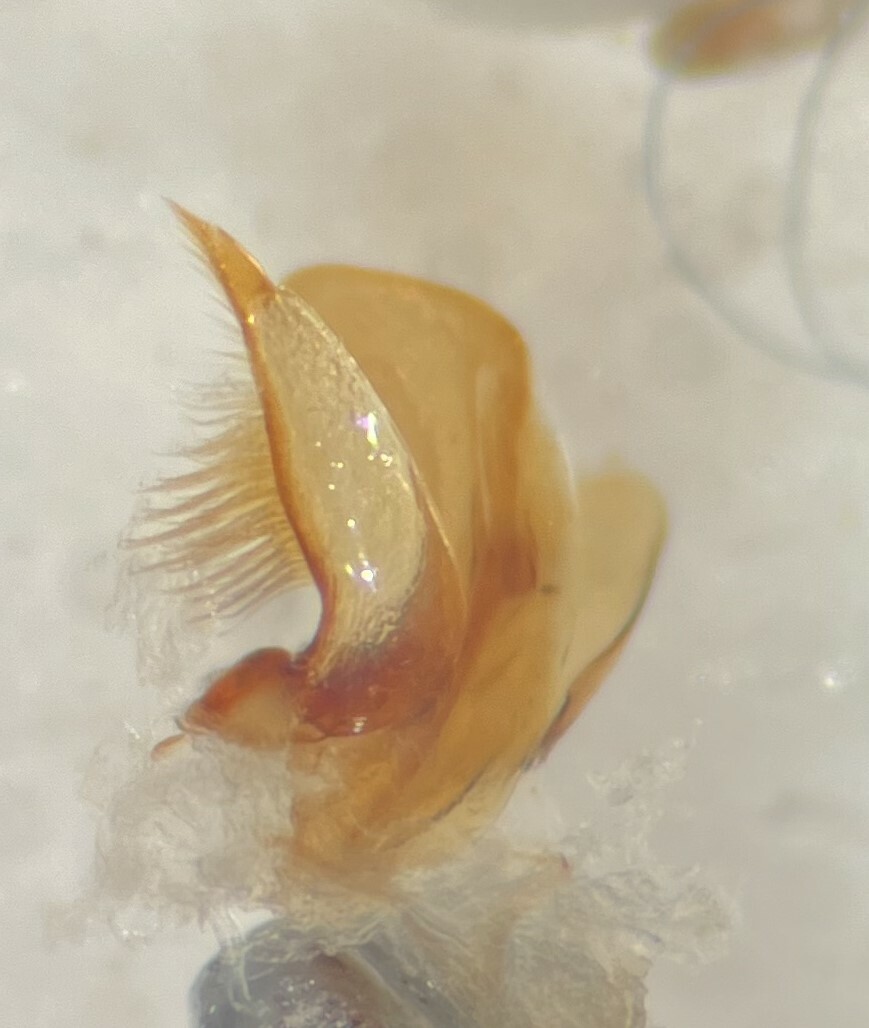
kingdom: Animalia
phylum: Arthropoda
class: Insecta
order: Coleoptera
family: Haliplidae
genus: Haliplus
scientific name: Haliplus fasciatus
